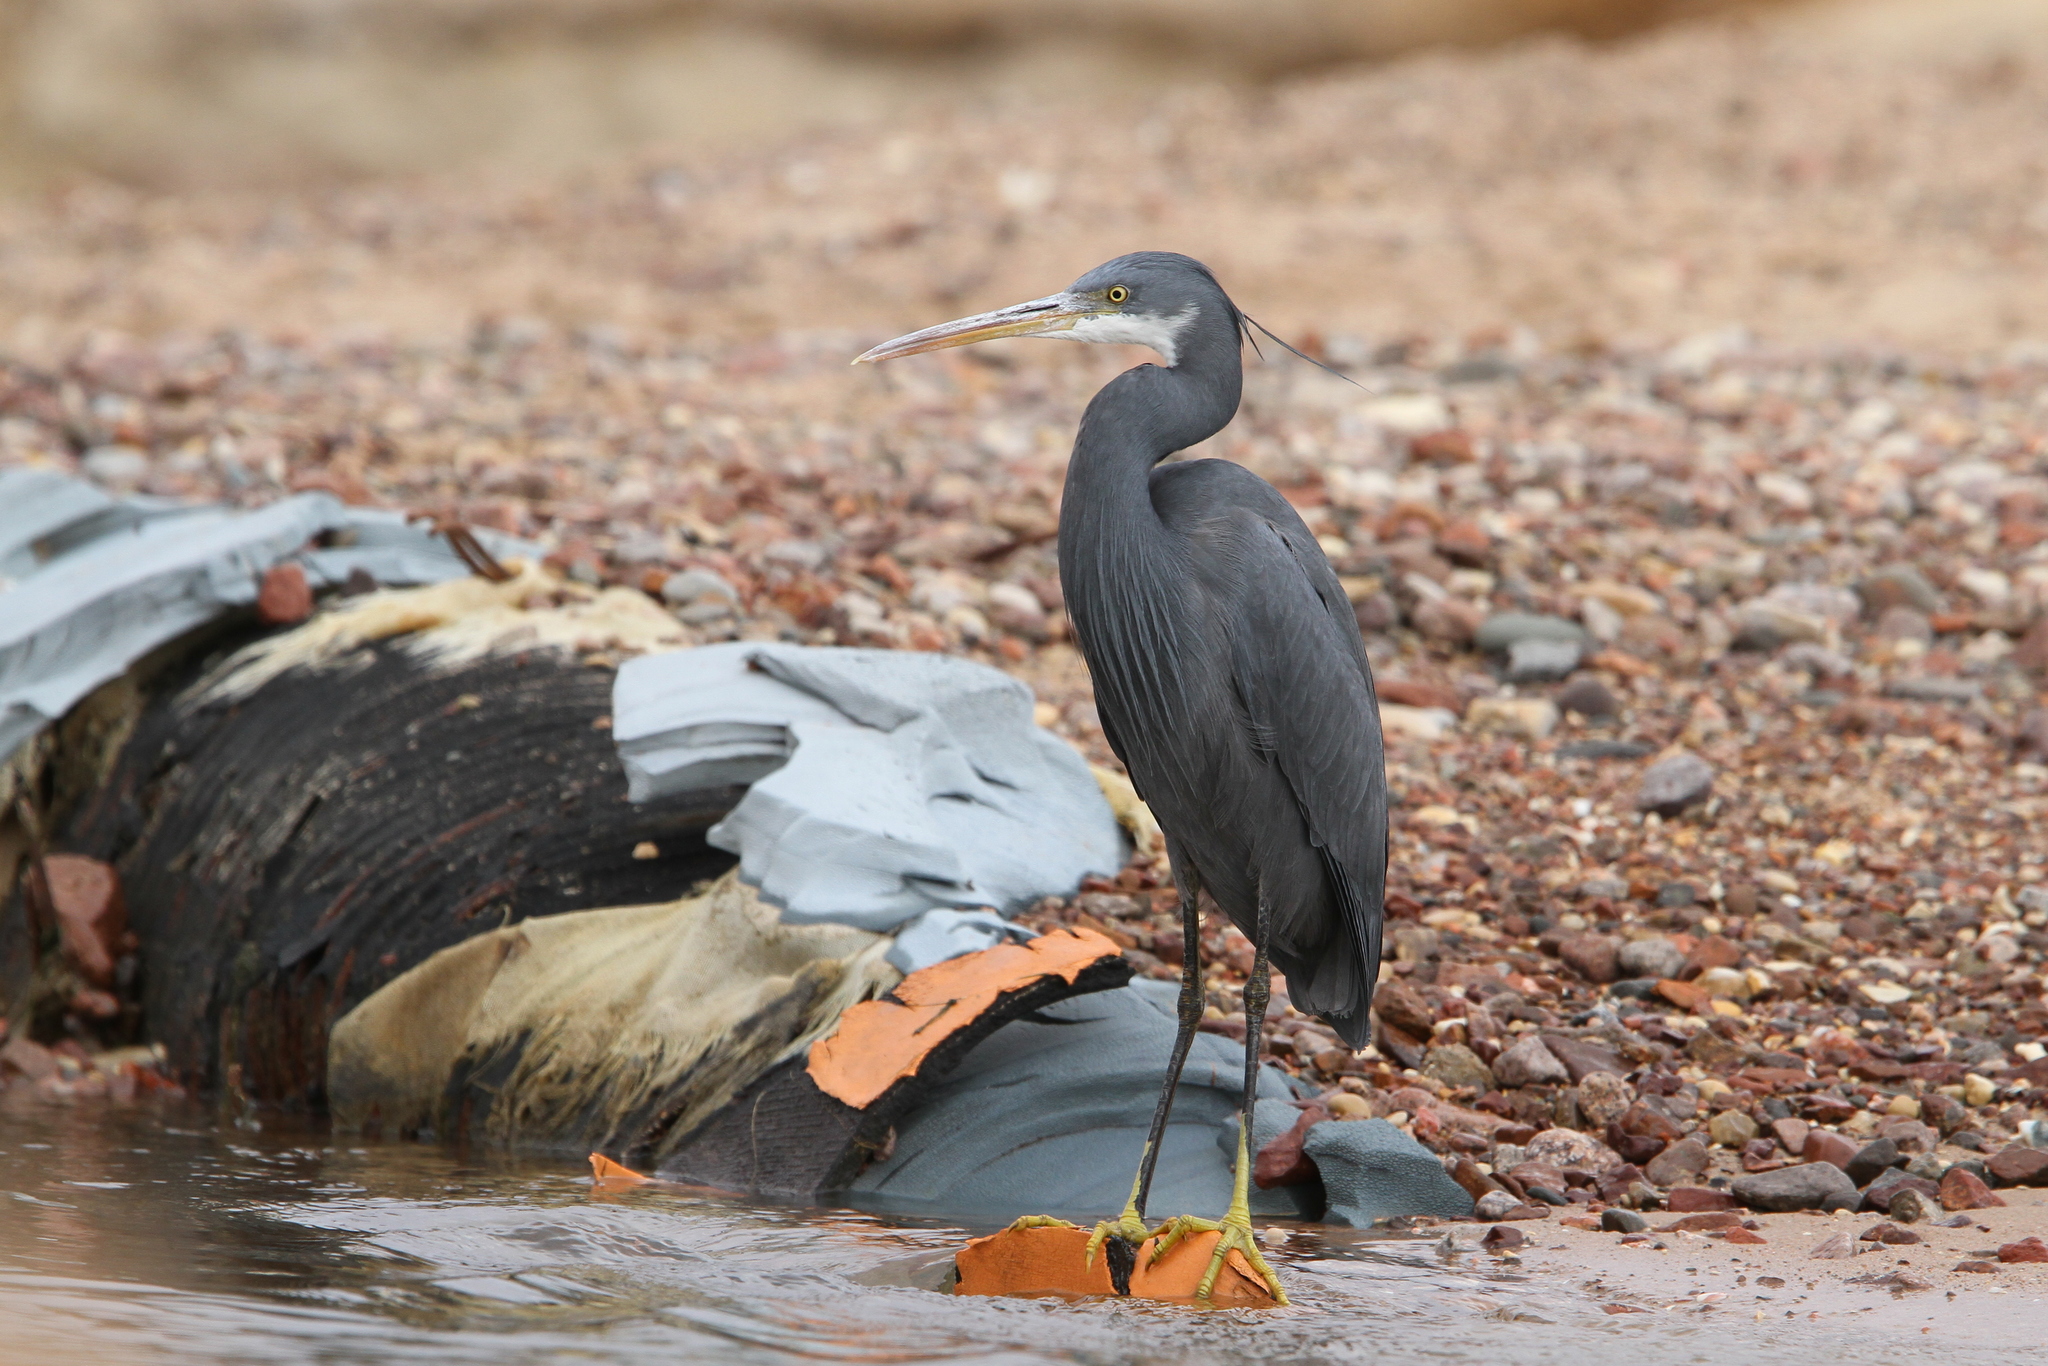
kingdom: Animalia
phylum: Chordata
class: Aves
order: Pelecaniformes
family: Ardeidae
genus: Egretta
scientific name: Egretta gularis
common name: Western reef-heron
